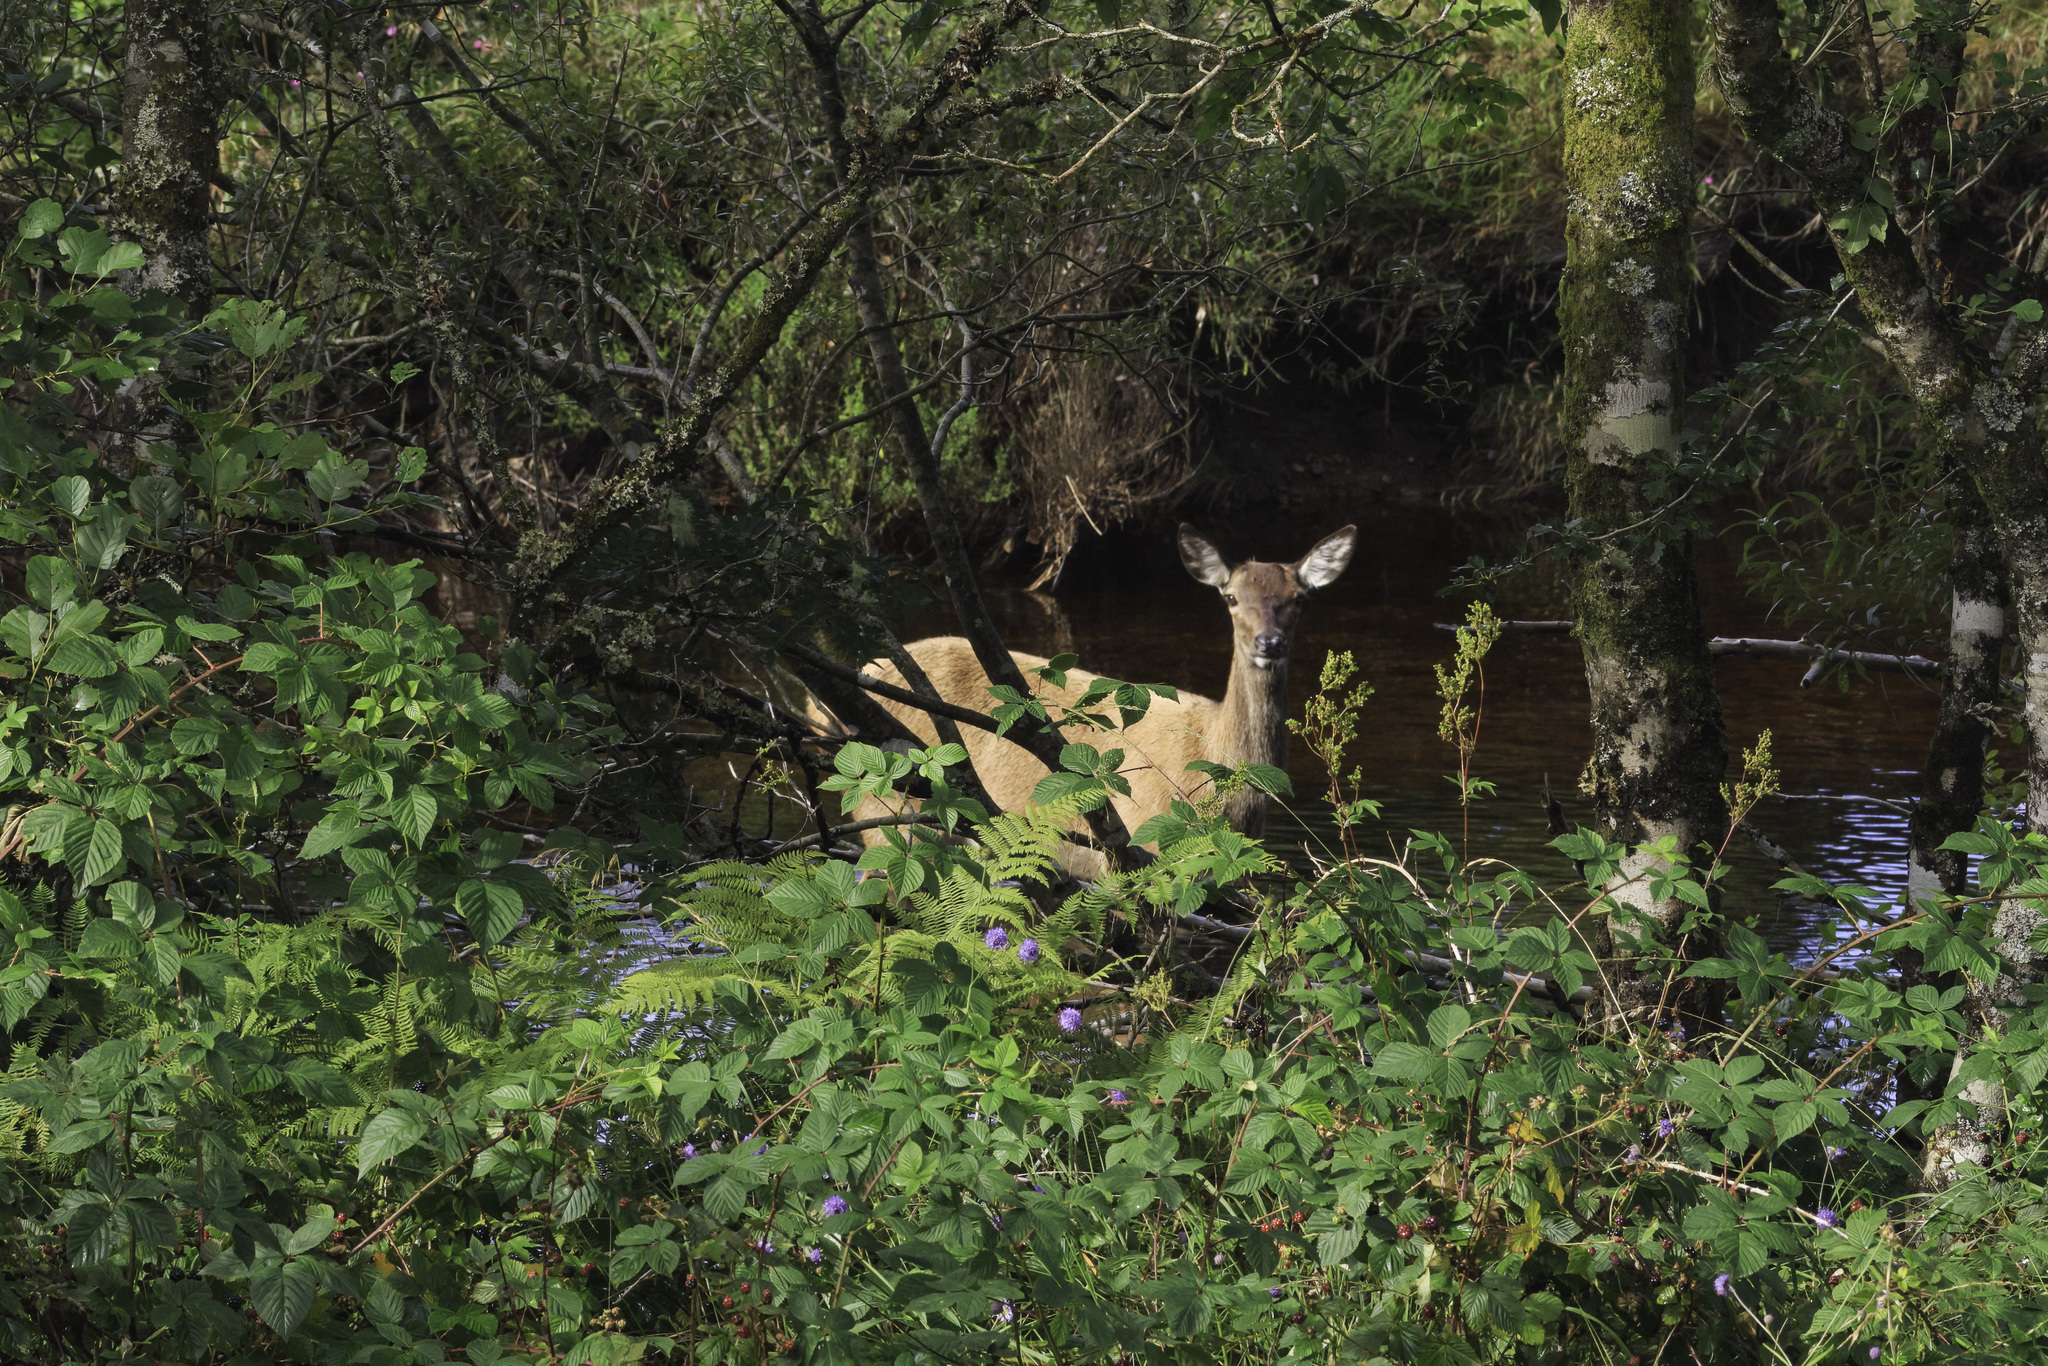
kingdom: Animalia
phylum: Chordata
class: Mammalia
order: Artiodactyla
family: Cervidae
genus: Cervus
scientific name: Cervus elaphus
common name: Red deer
